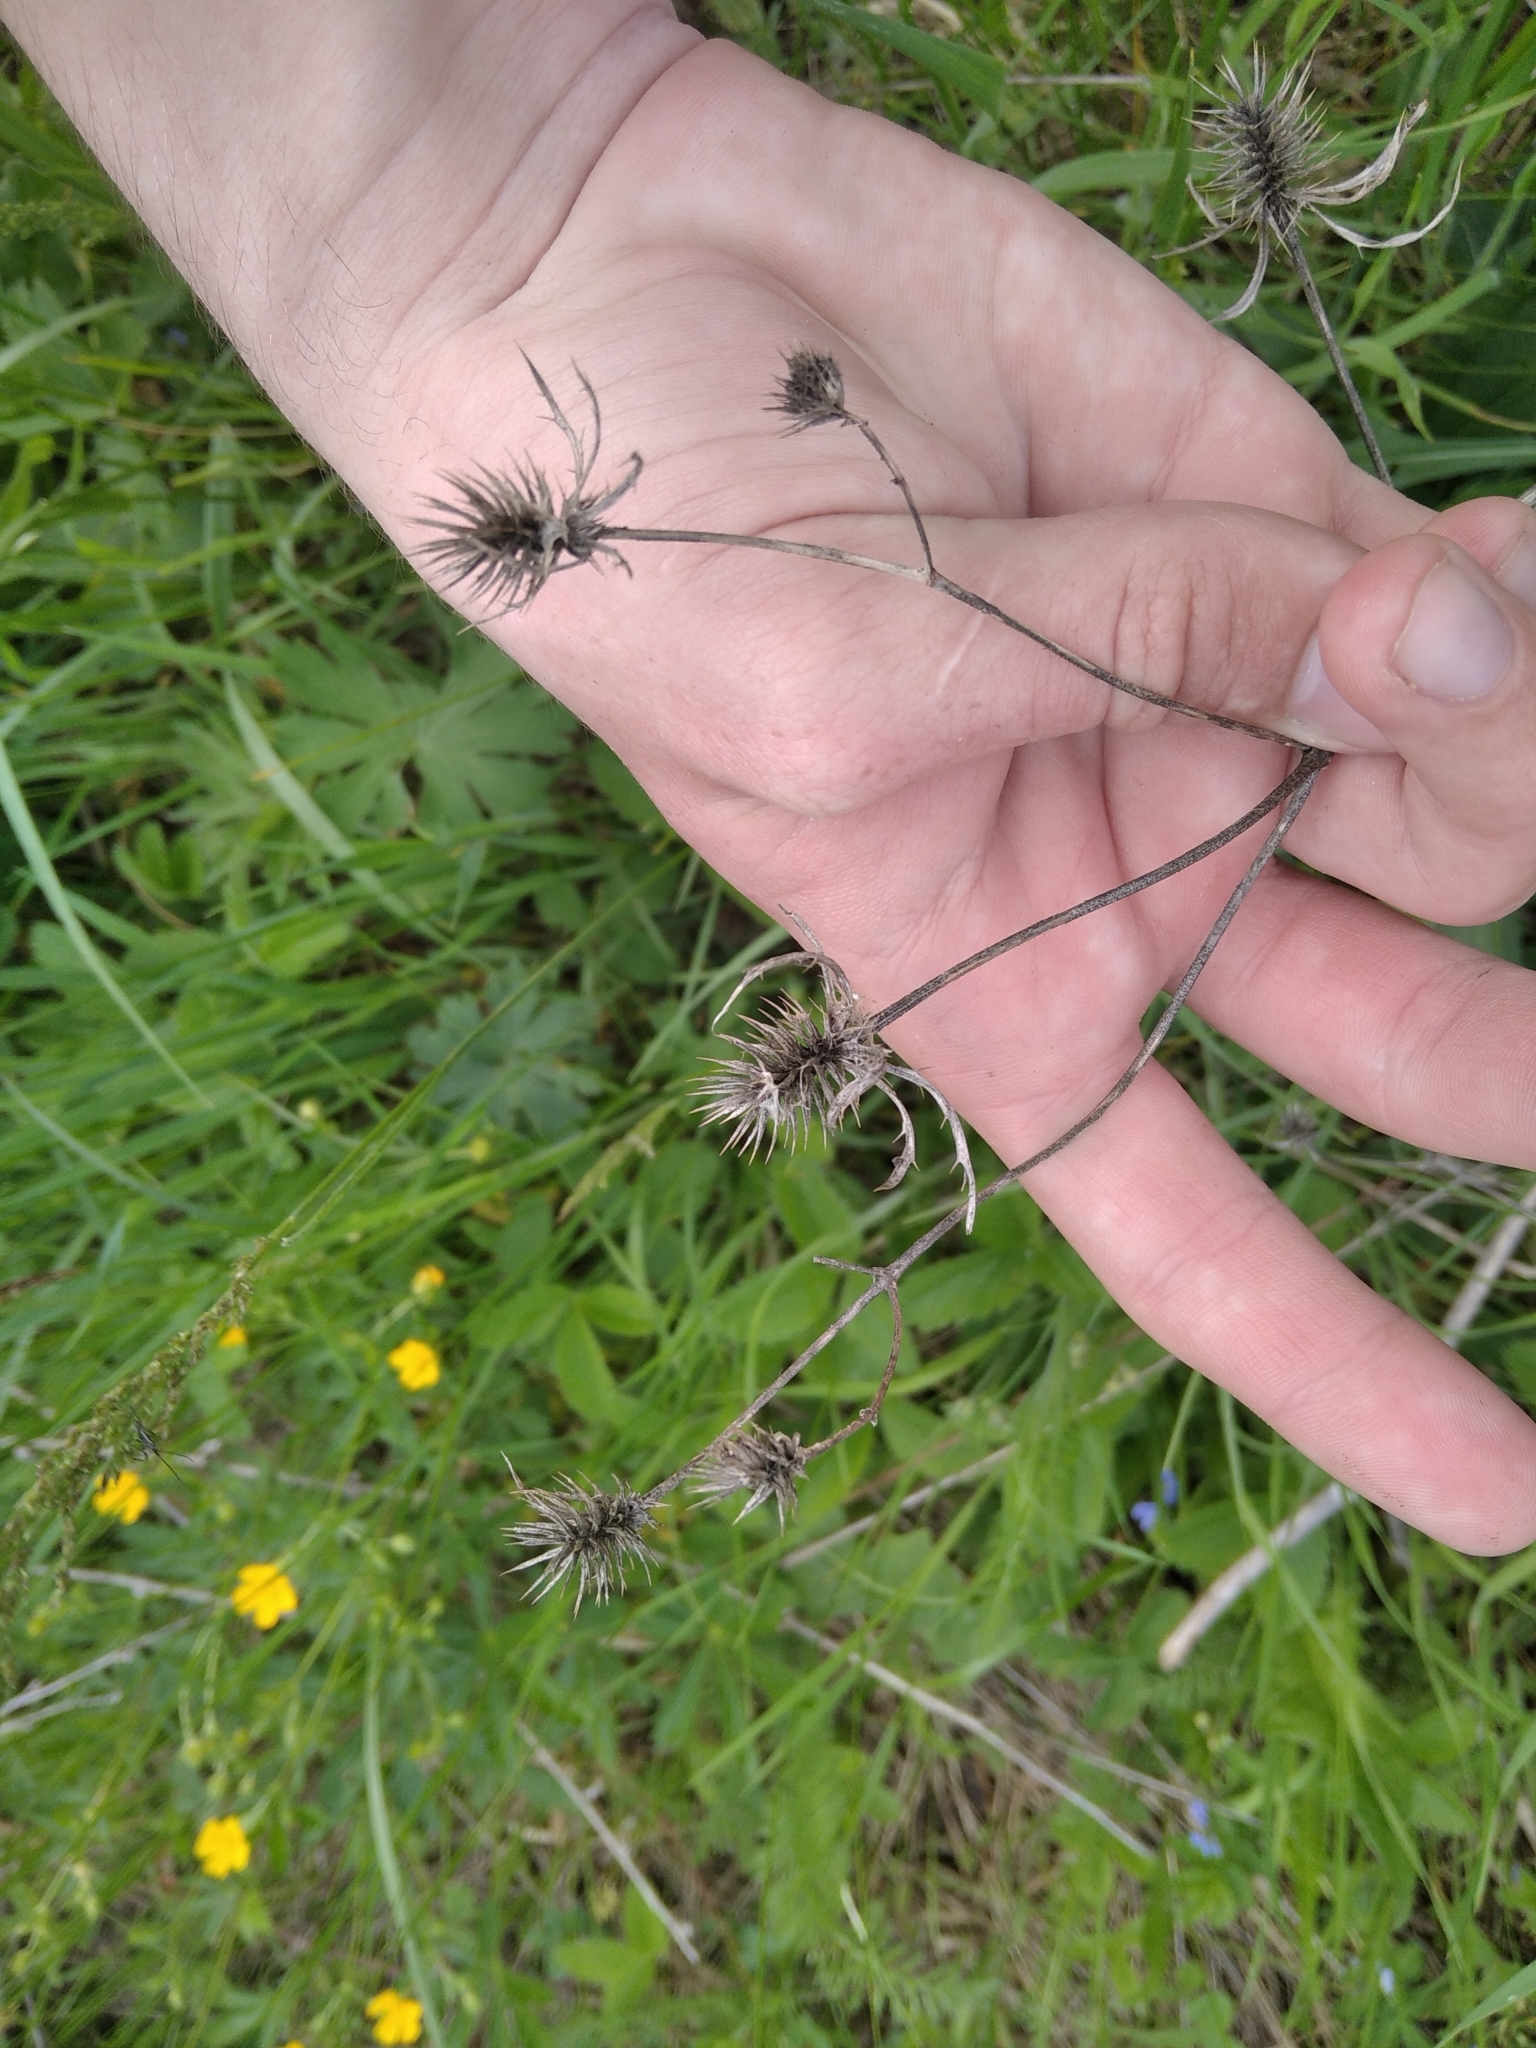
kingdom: Plantae
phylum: Tracheophyta
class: Magnoliopsida
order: Apiales
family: Apiaceae
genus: Eryngium
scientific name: Eryngium planum
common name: Blue eryngo
